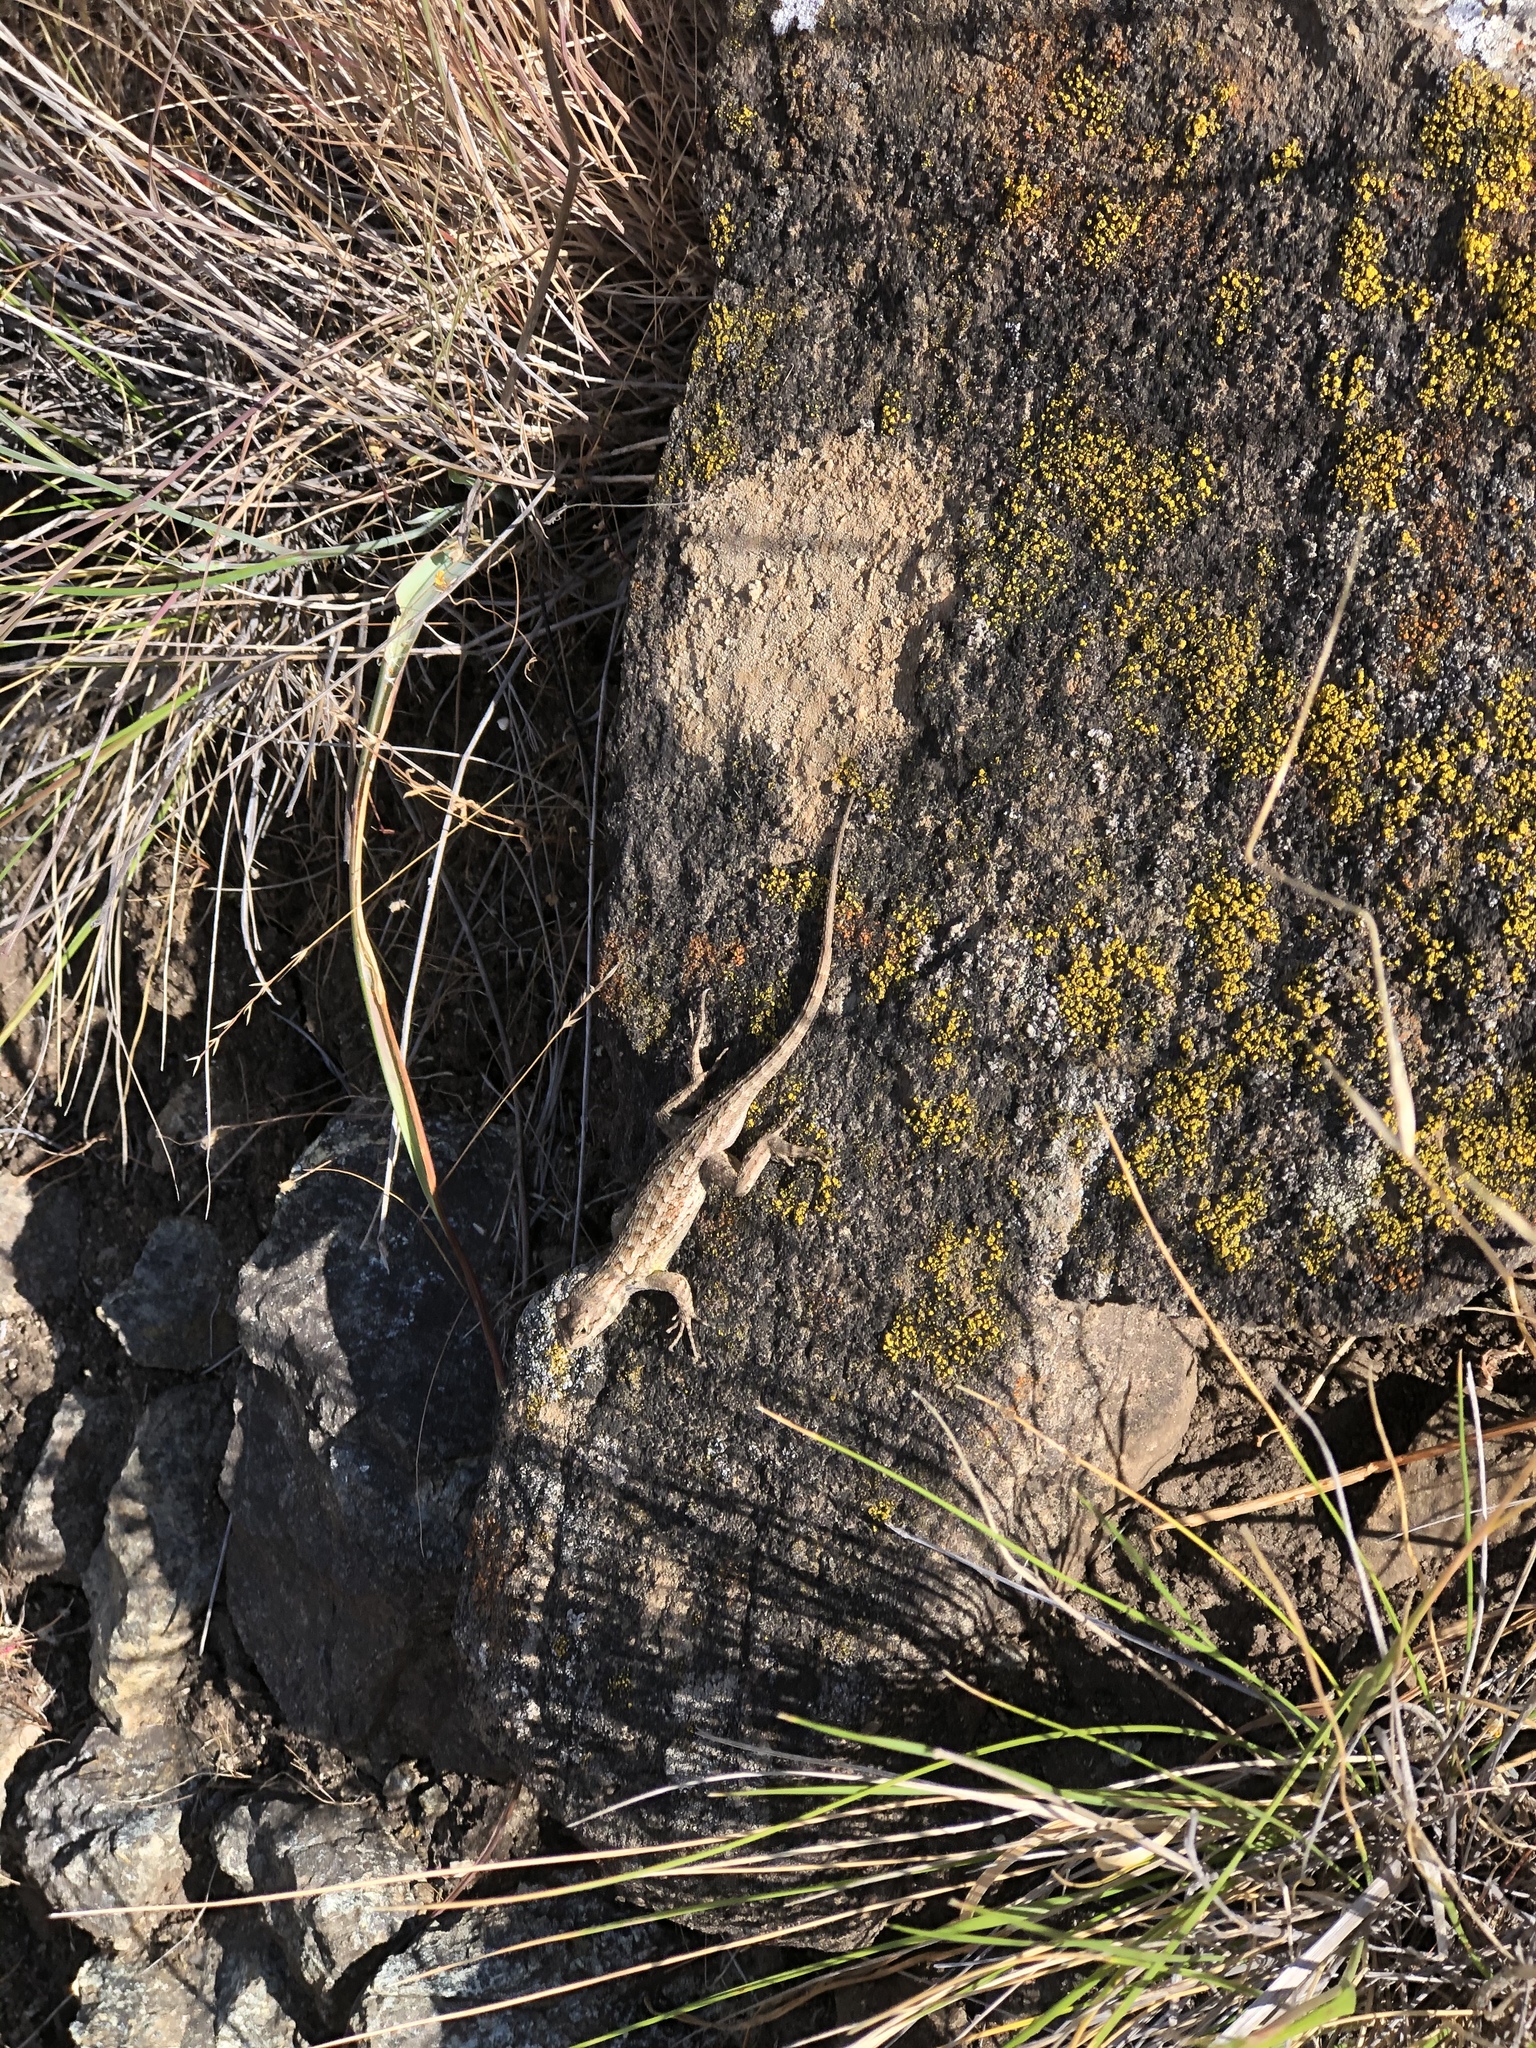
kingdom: Animalia
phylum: Chordata
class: Squamata
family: Phrynosomatidae
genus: Sceloporus
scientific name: Sceloporus occidentalis
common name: Western fence lizard
